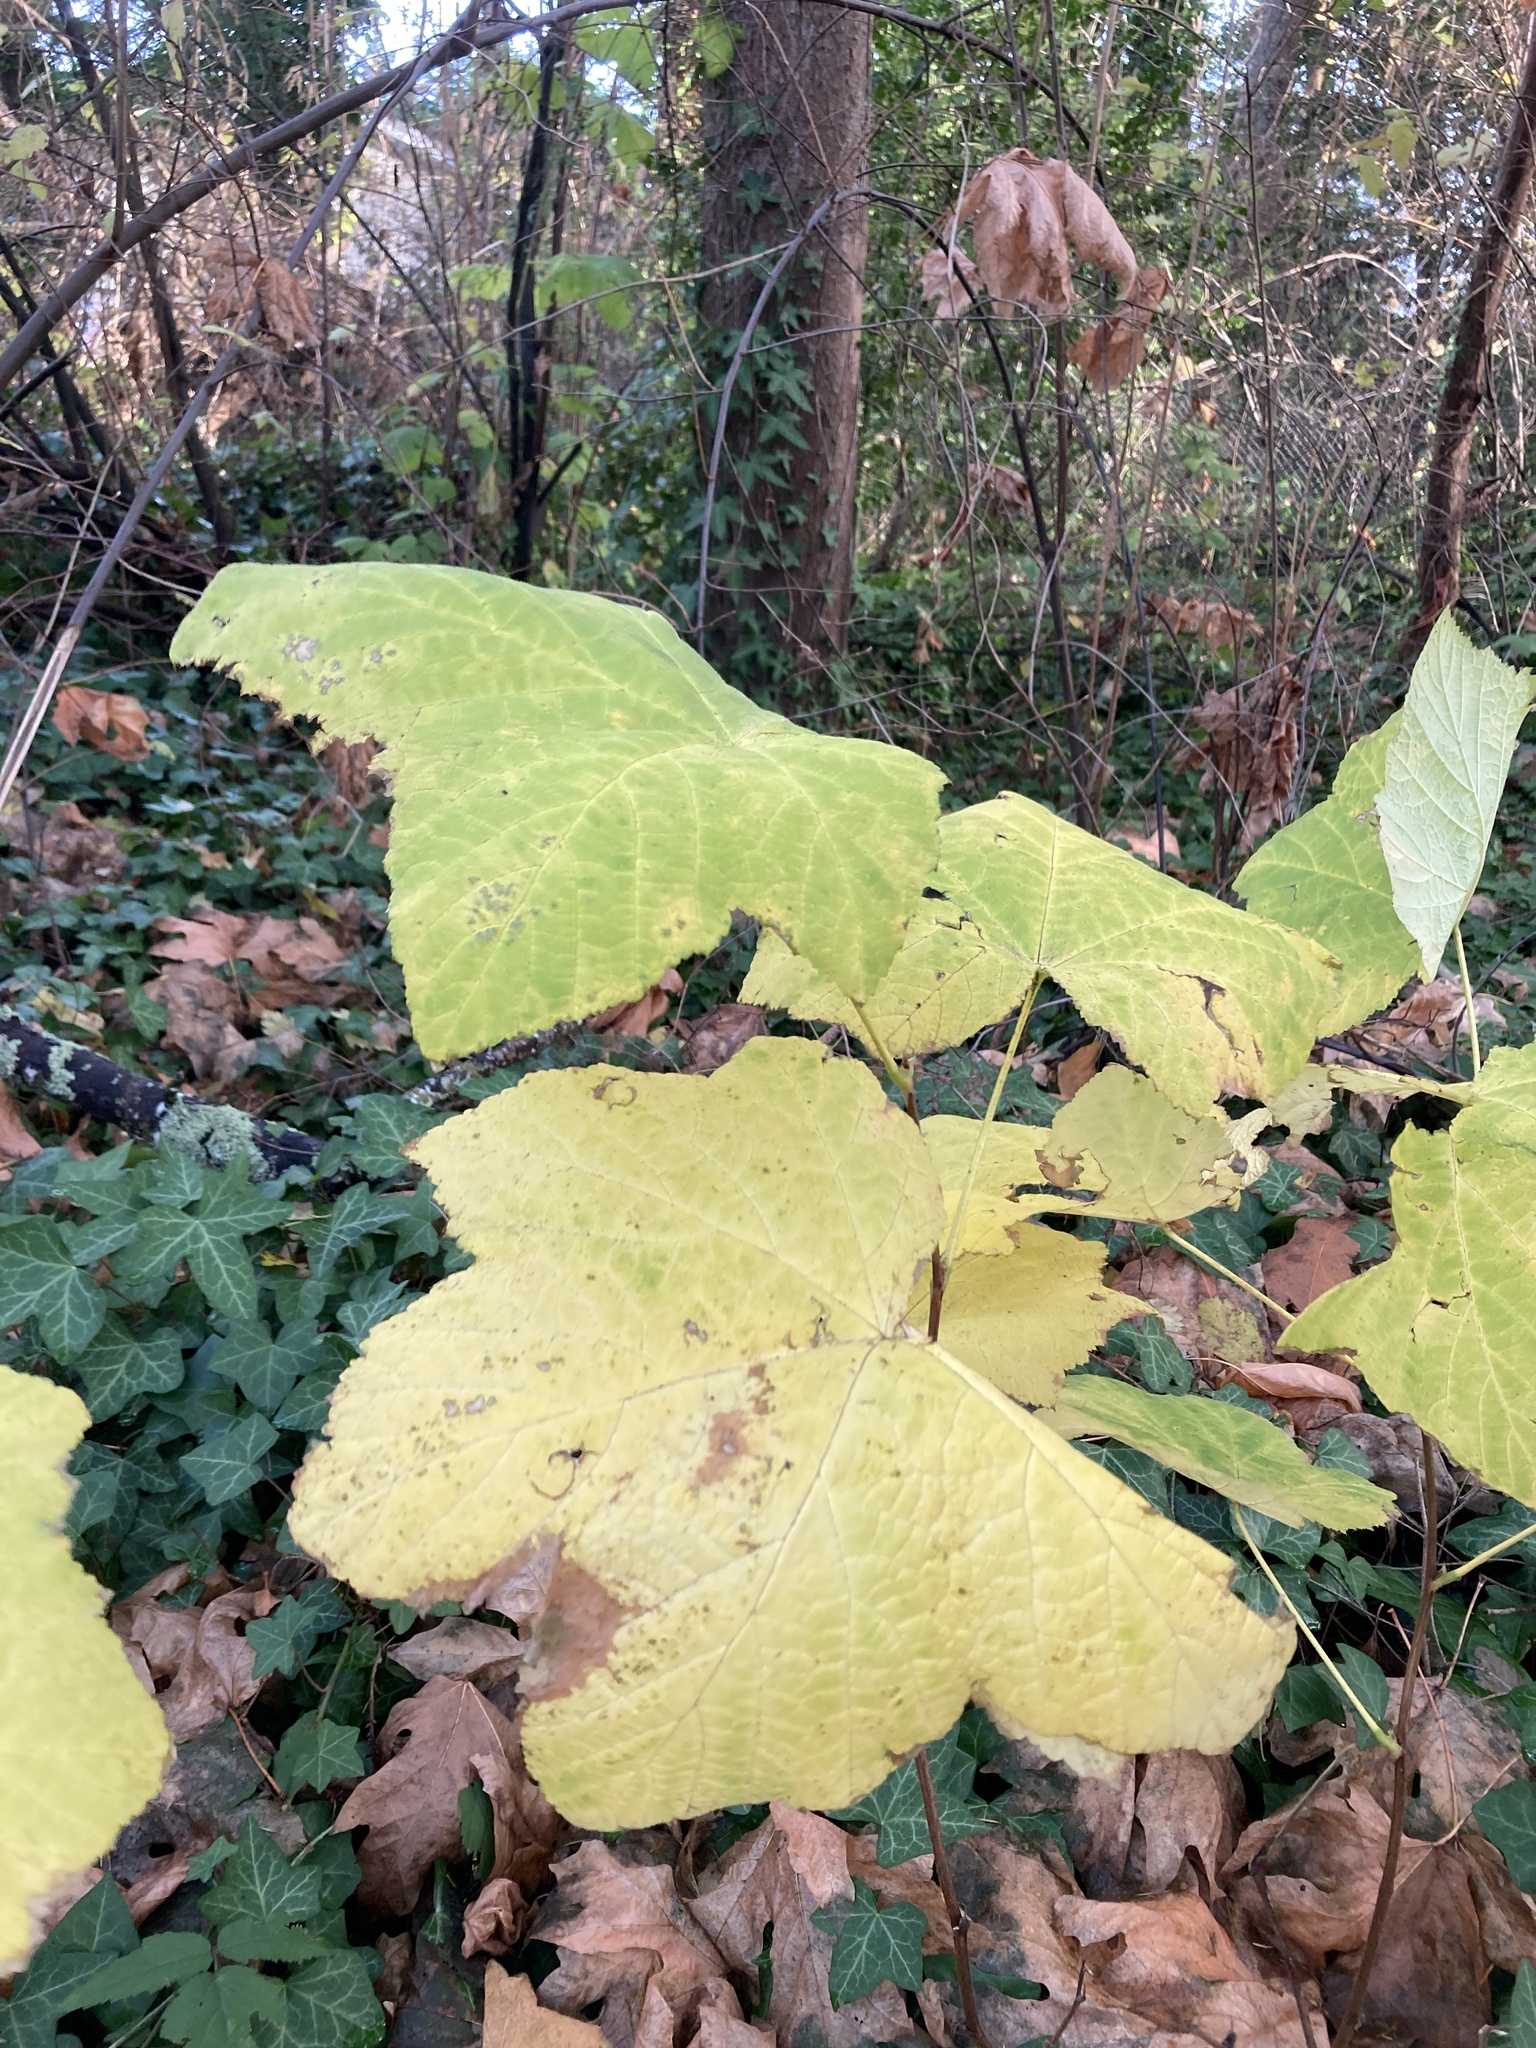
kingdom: Plantae
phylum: Tracheophyta
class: Magnoliopsida
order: Rosales
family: Rosaceae
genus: Rubus
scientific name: Rubus parviflorus
